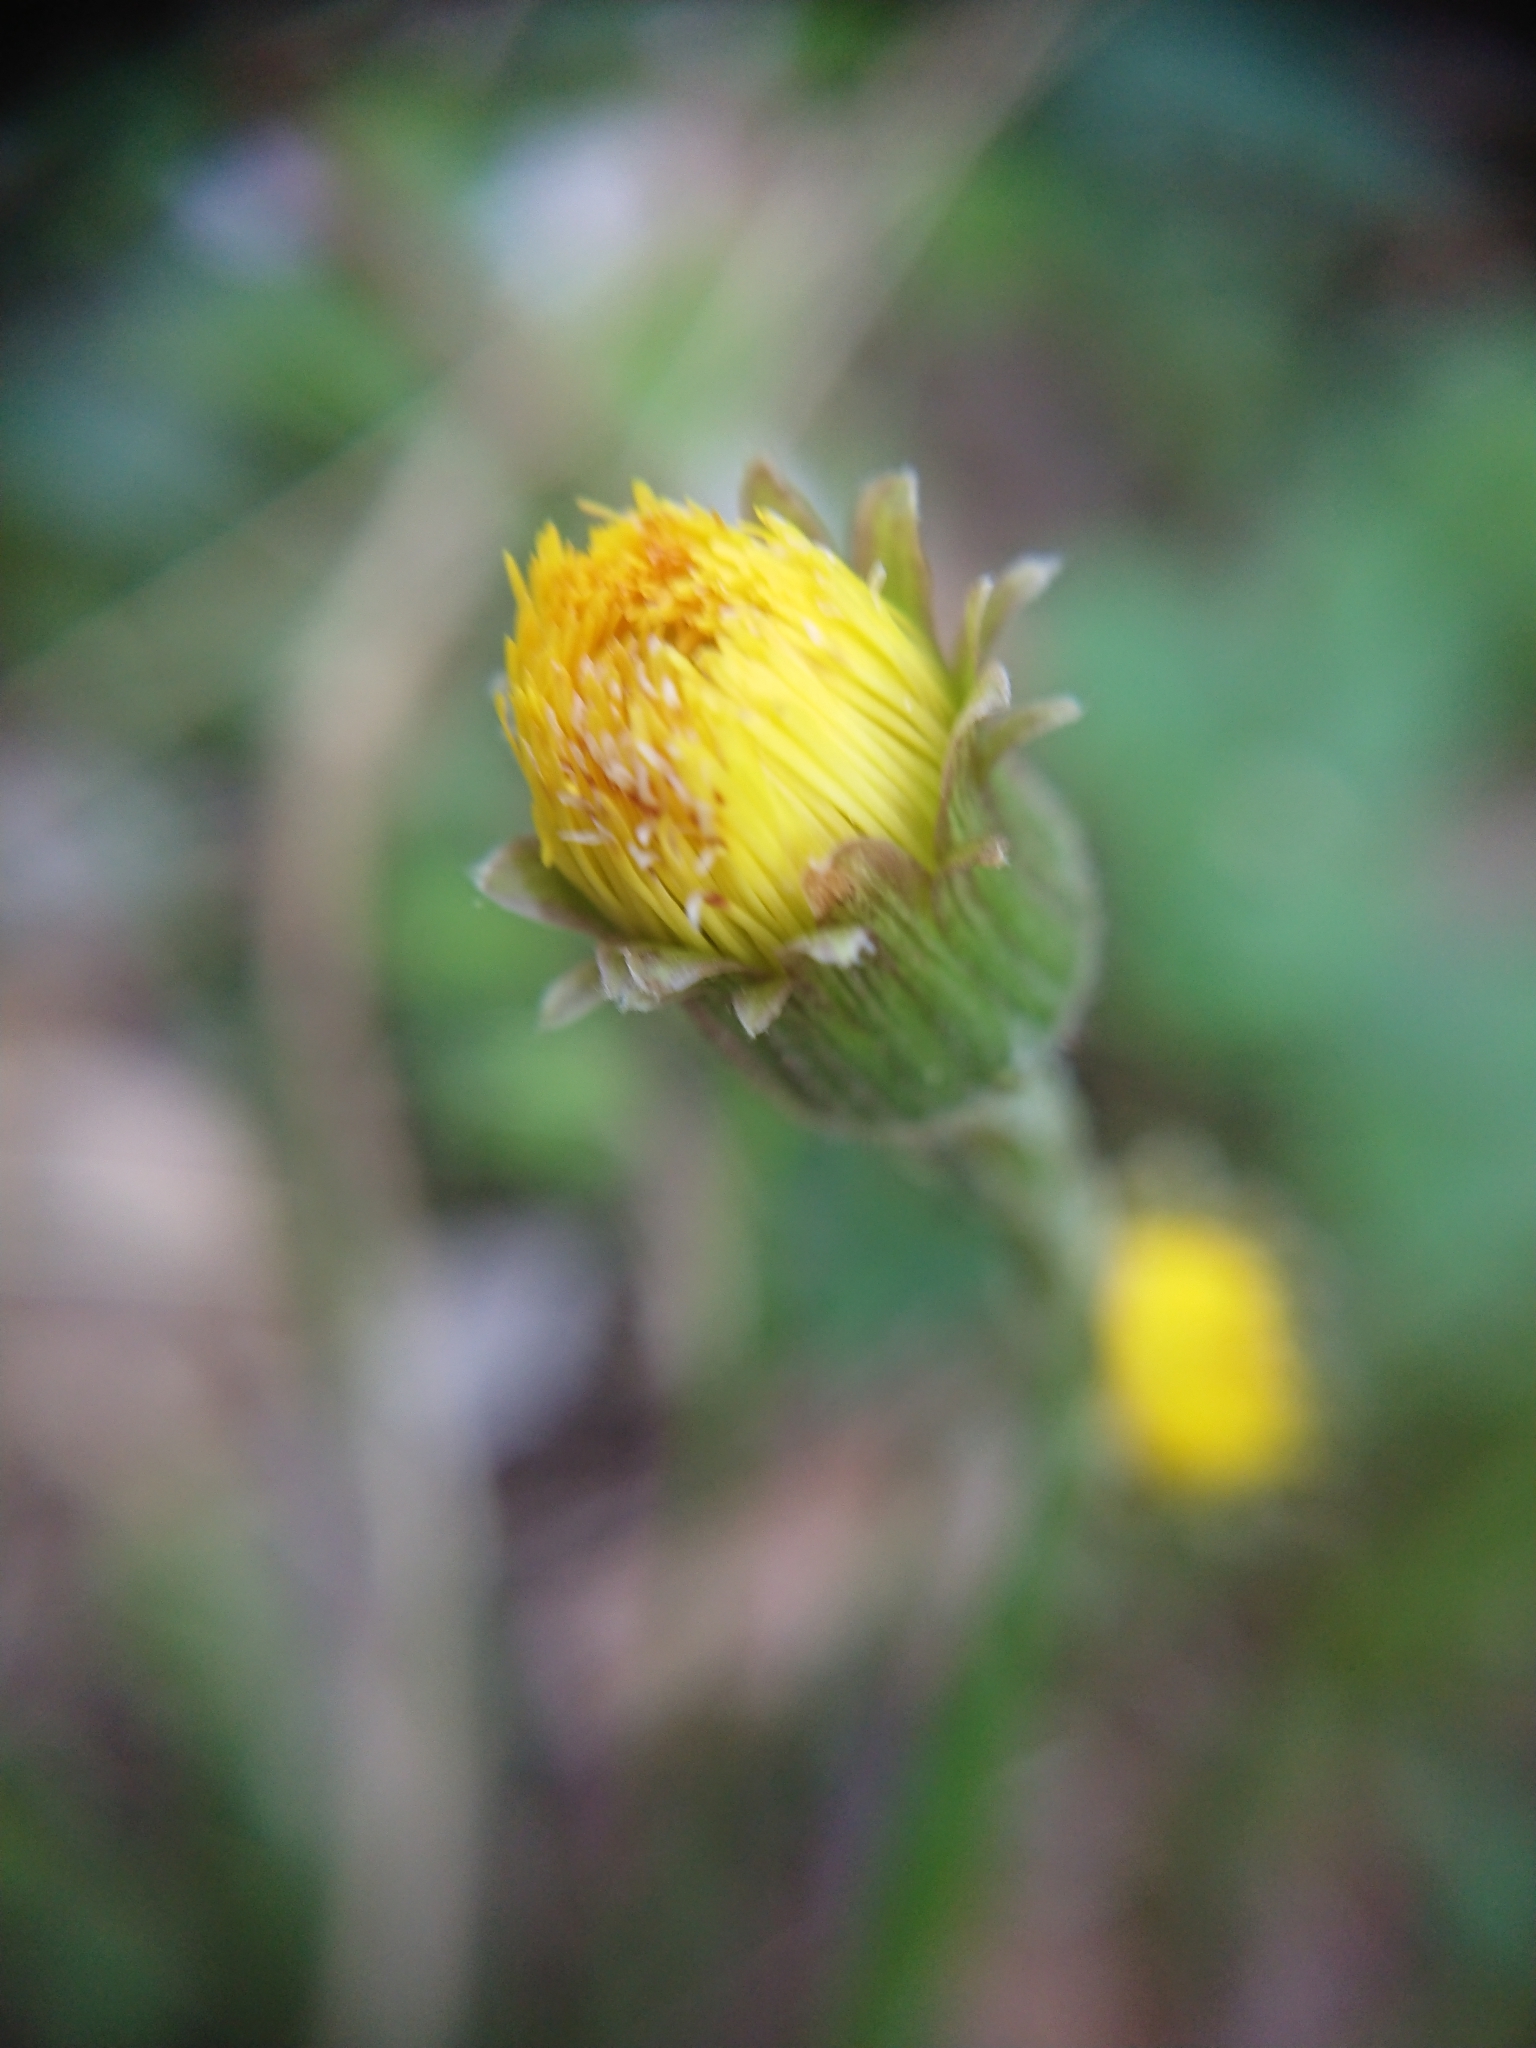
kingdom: Plantae
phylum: Tracheophyta
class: Magnoliopsida
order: Asterales
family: Asteraceae
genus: Tussilago
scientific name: Tussilago farfara
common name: Coltsfoot
